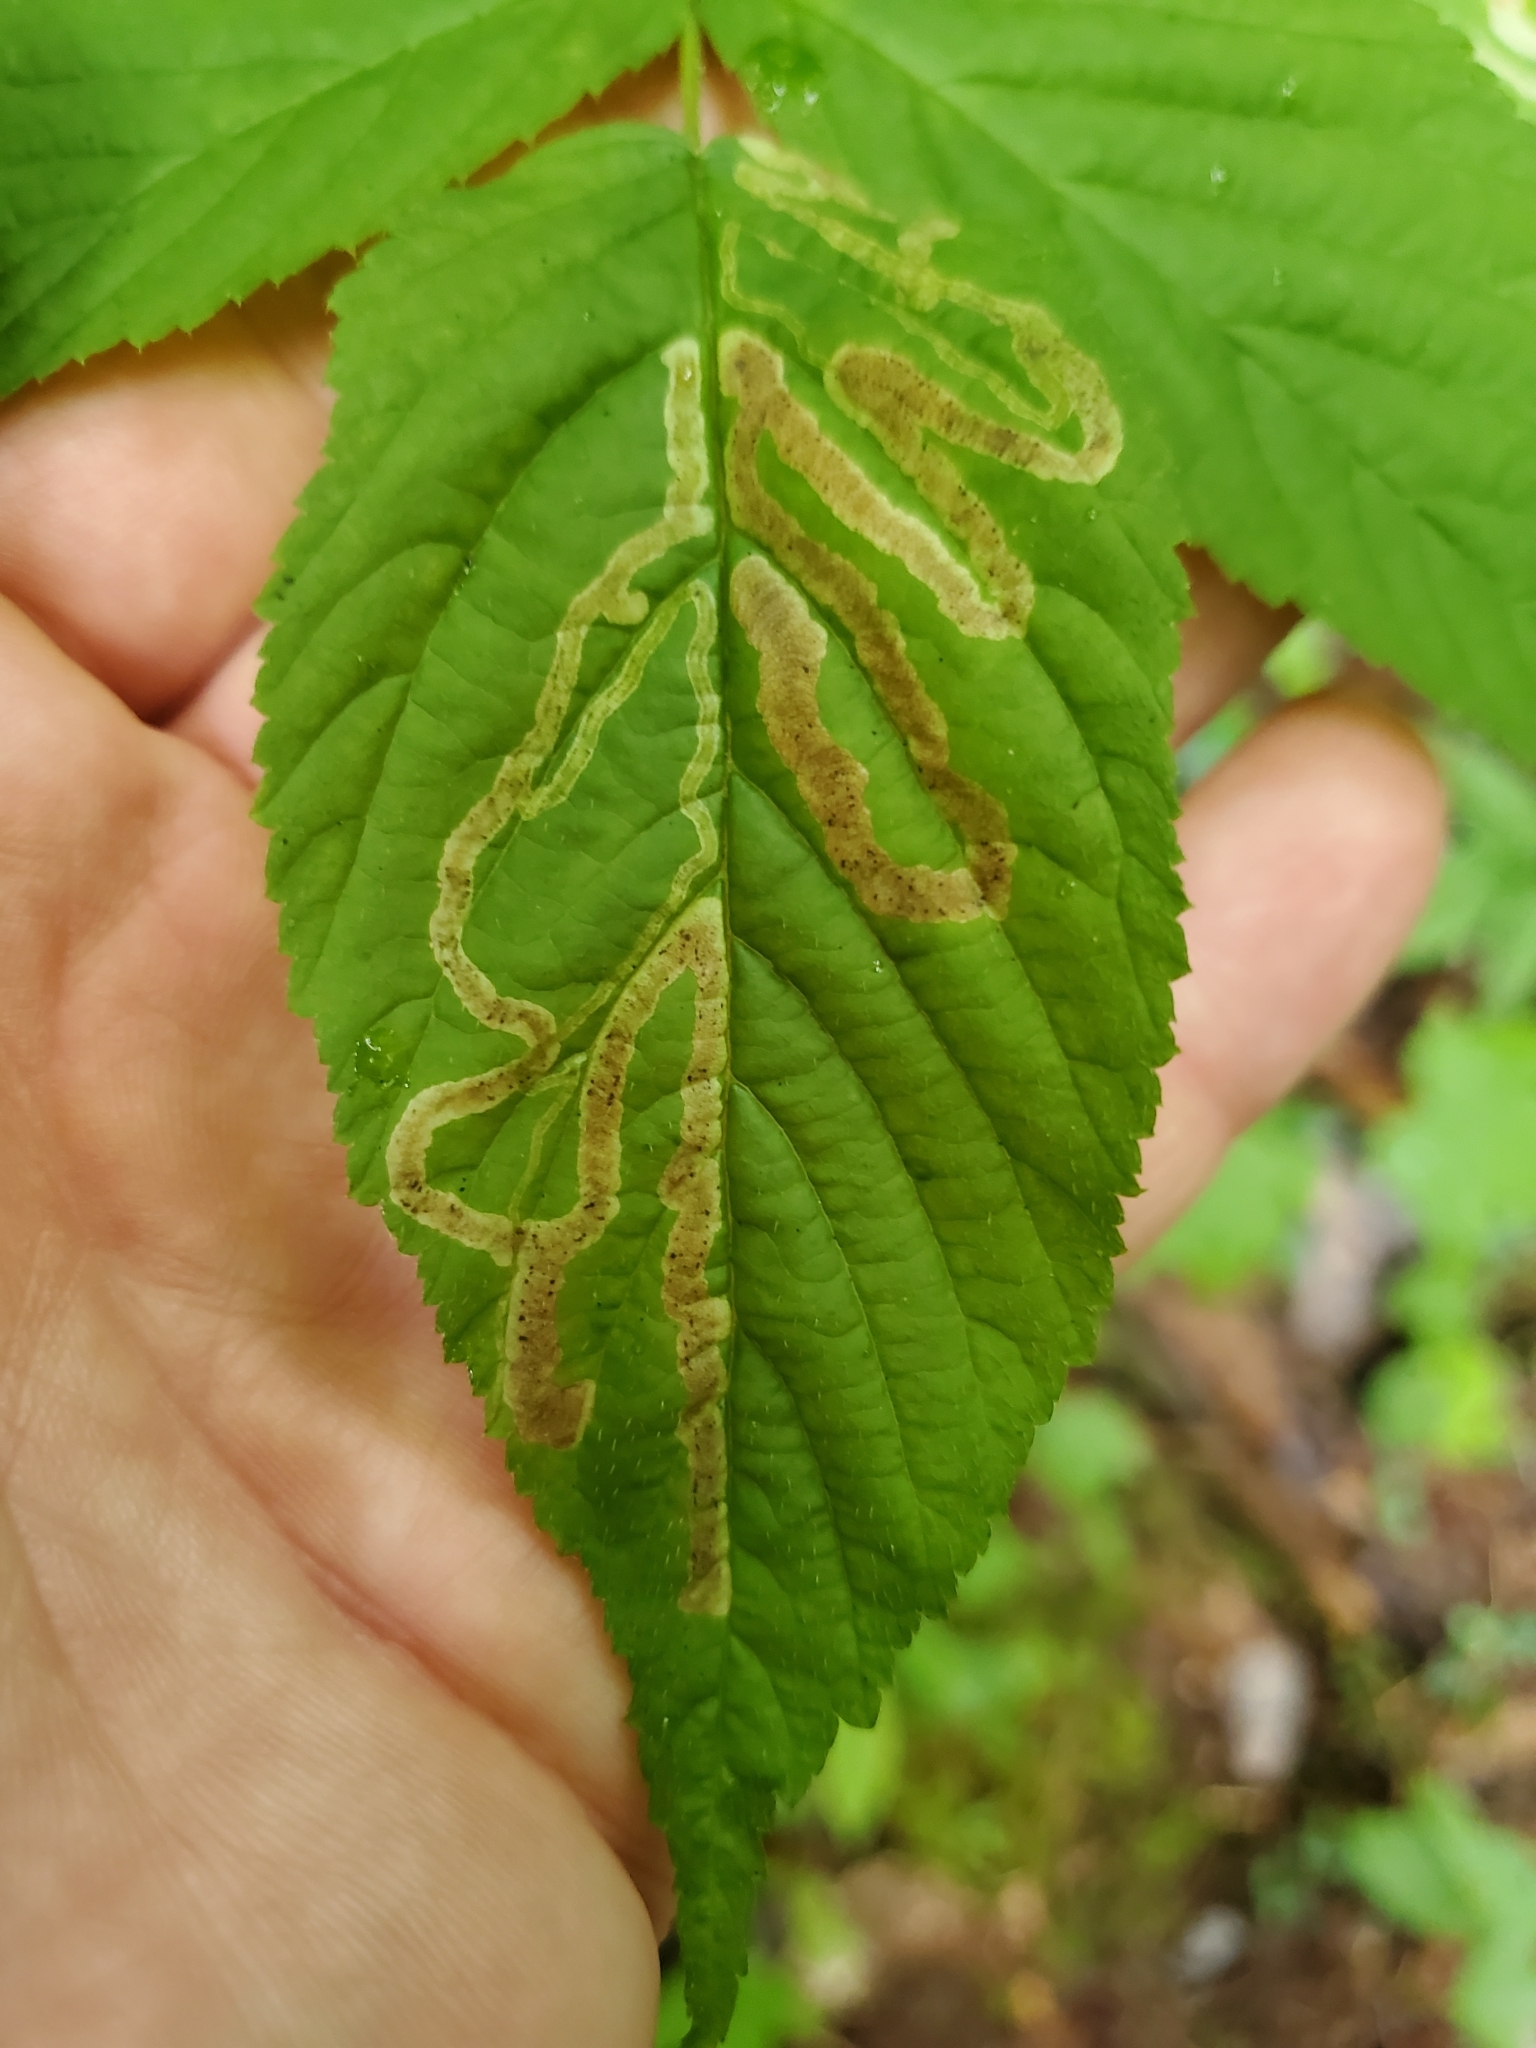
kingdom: Animalia
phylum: Arthropoda
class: Insecta
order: Diptera
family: Agromyzidae
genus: Agromyza
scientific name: Agromyza vockerothi
